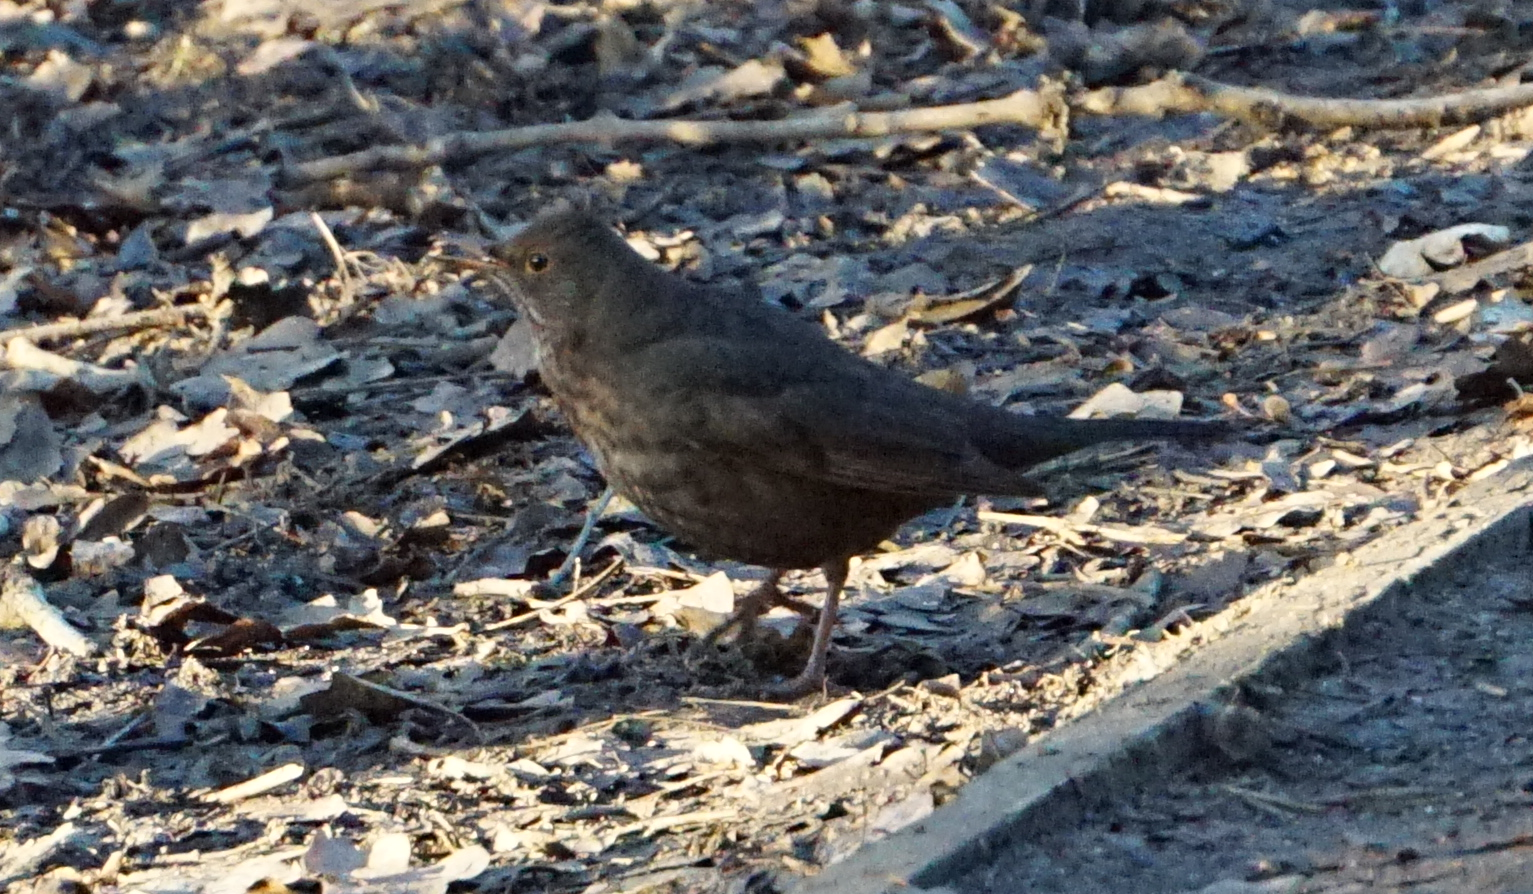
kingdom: Animalia
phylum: Chordata
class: Aves
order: Passeriformes
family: Turdidae
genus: Turdus
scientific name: Turdus merula
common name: Common blackbird
